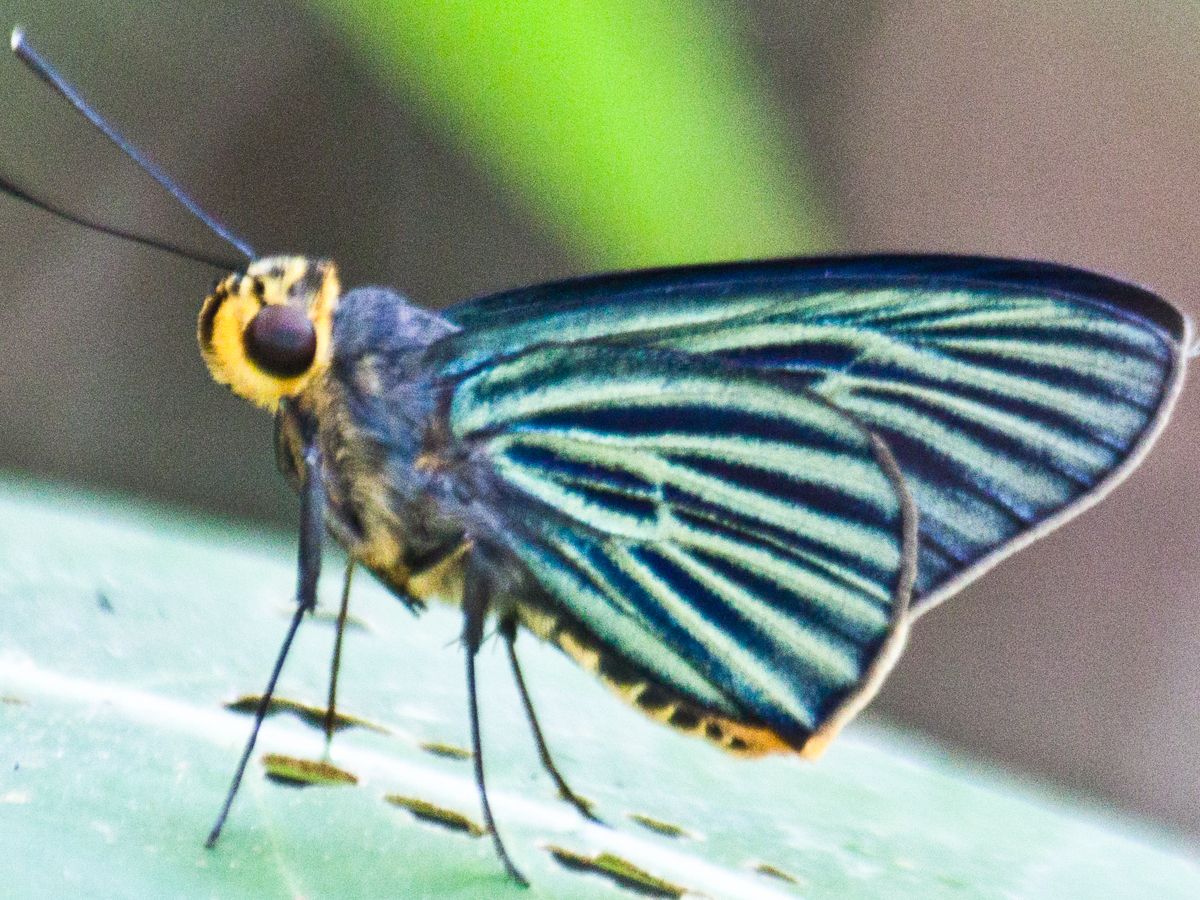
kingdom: Animalia
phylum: Arthropoda
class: Insecta
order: Lepidoptera
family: Hesperiidae
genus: Pirdana
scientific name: Pirdana hyela
